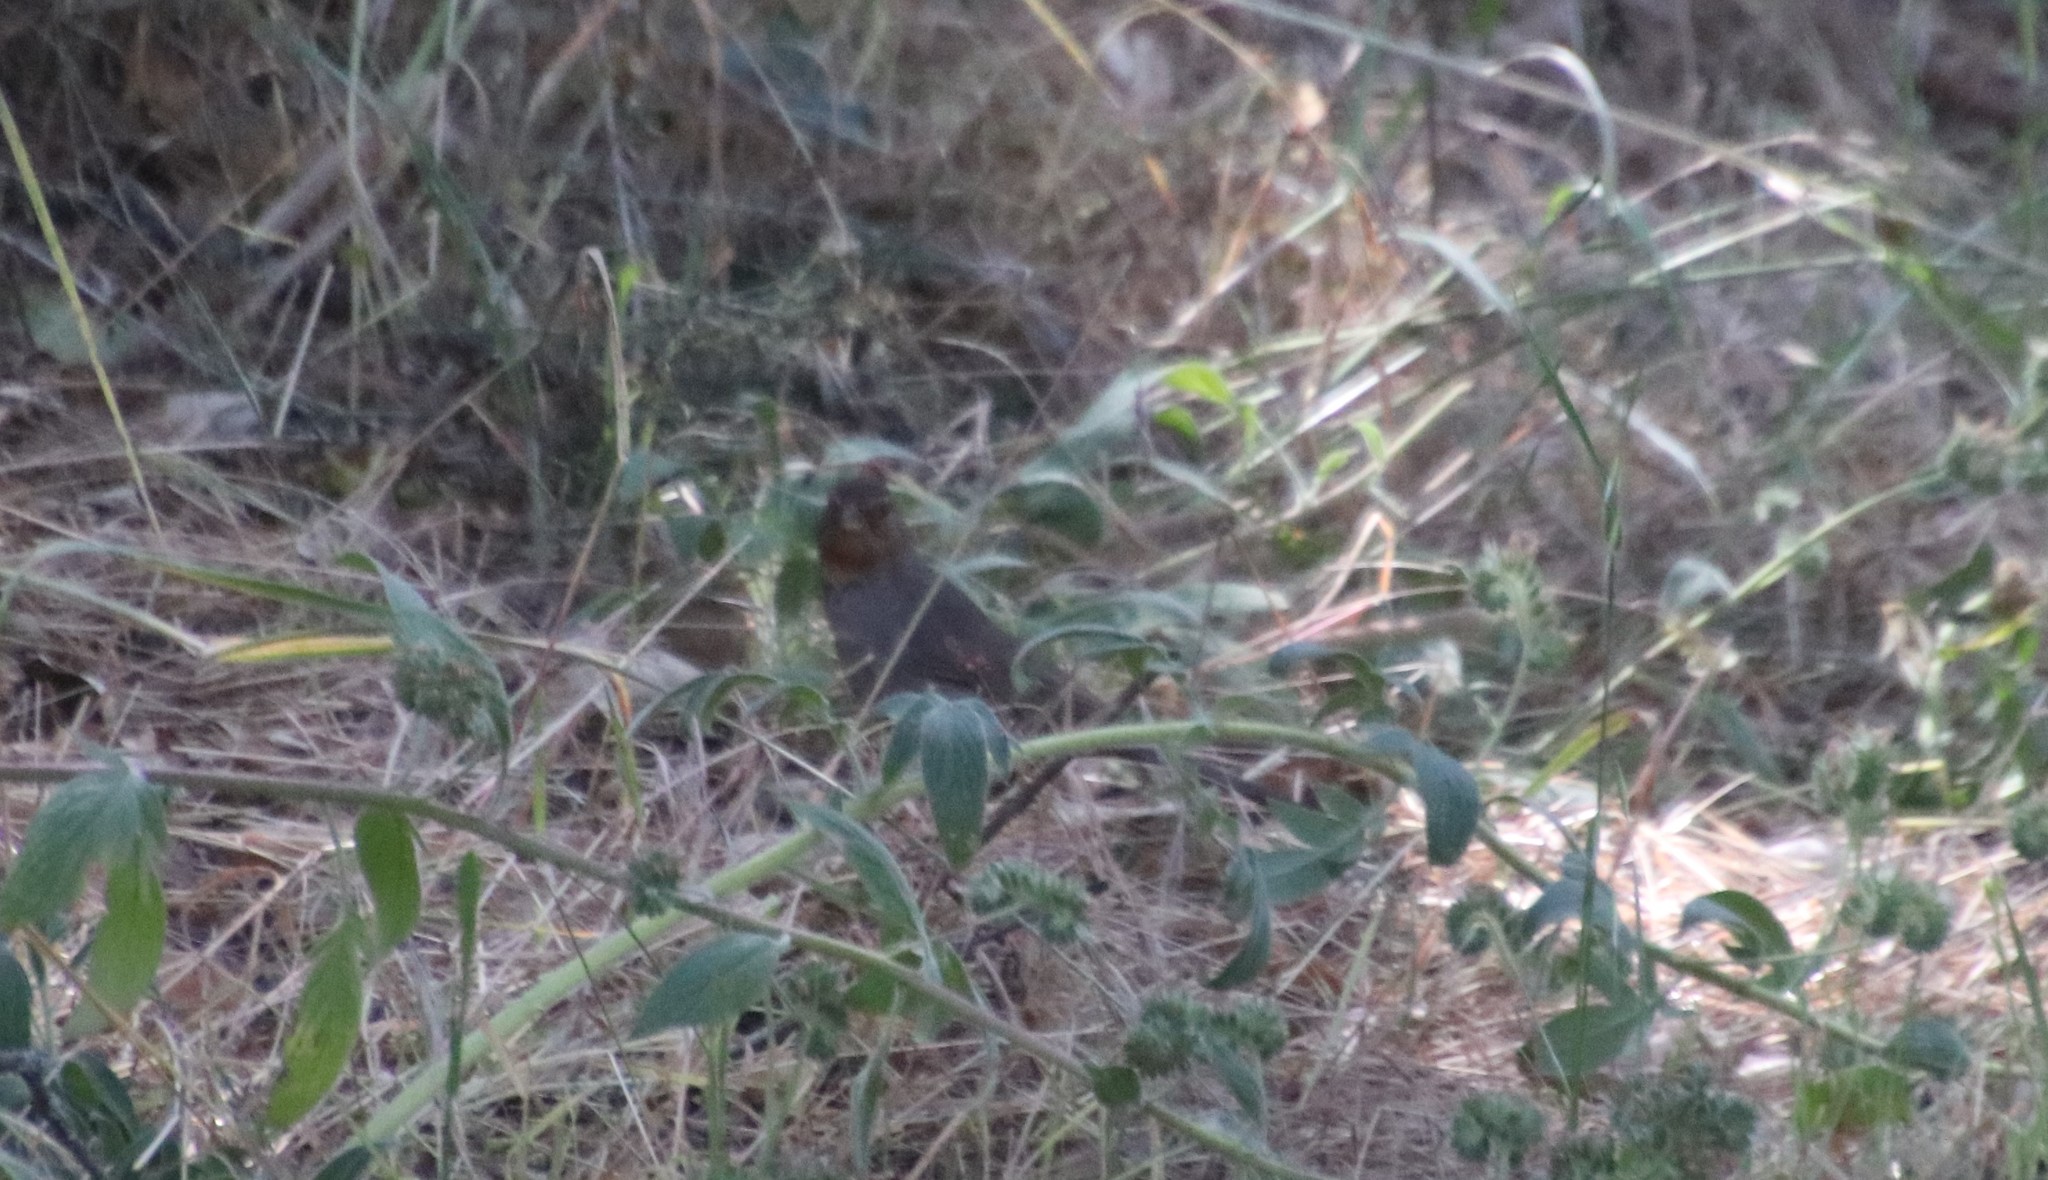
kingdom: Animalia
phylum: Chordata
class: Aves
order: Passeriformes
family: Passerellidae
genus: Melozone
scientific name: Melozone crissalis
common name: California towhee
